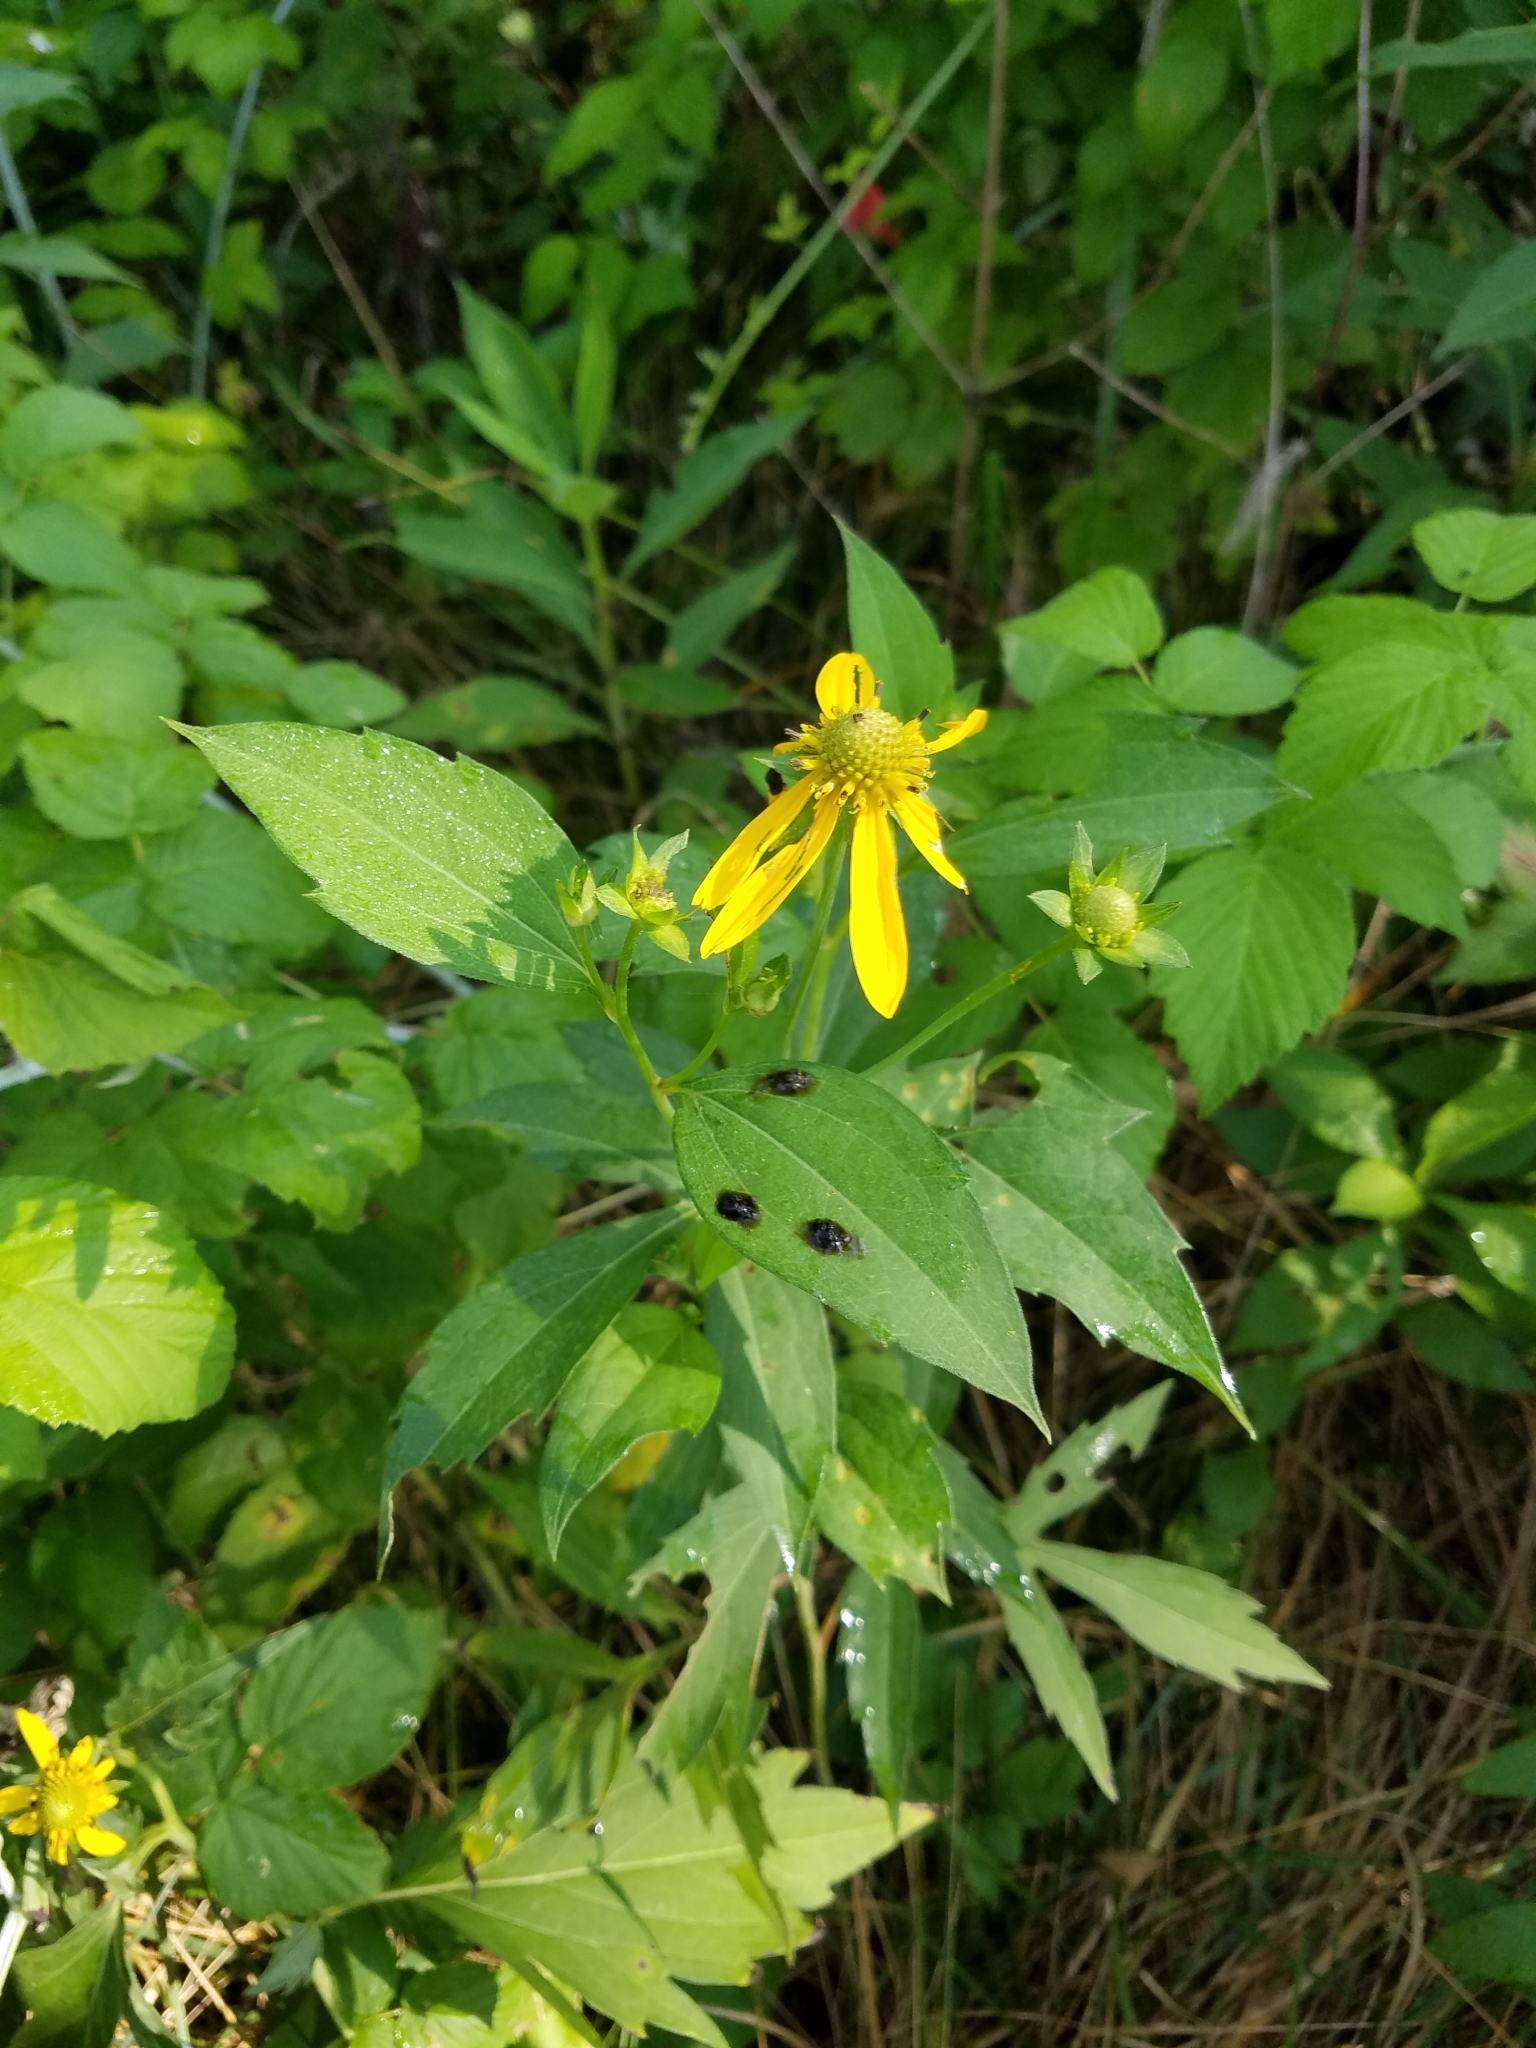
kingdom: Plantae
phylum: Tracheophyta
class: Magnoliopsida
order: Asterales
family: Asteraceae
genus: Rudbeckia
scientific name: Rudbeckia laciniata
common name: Coneflower
